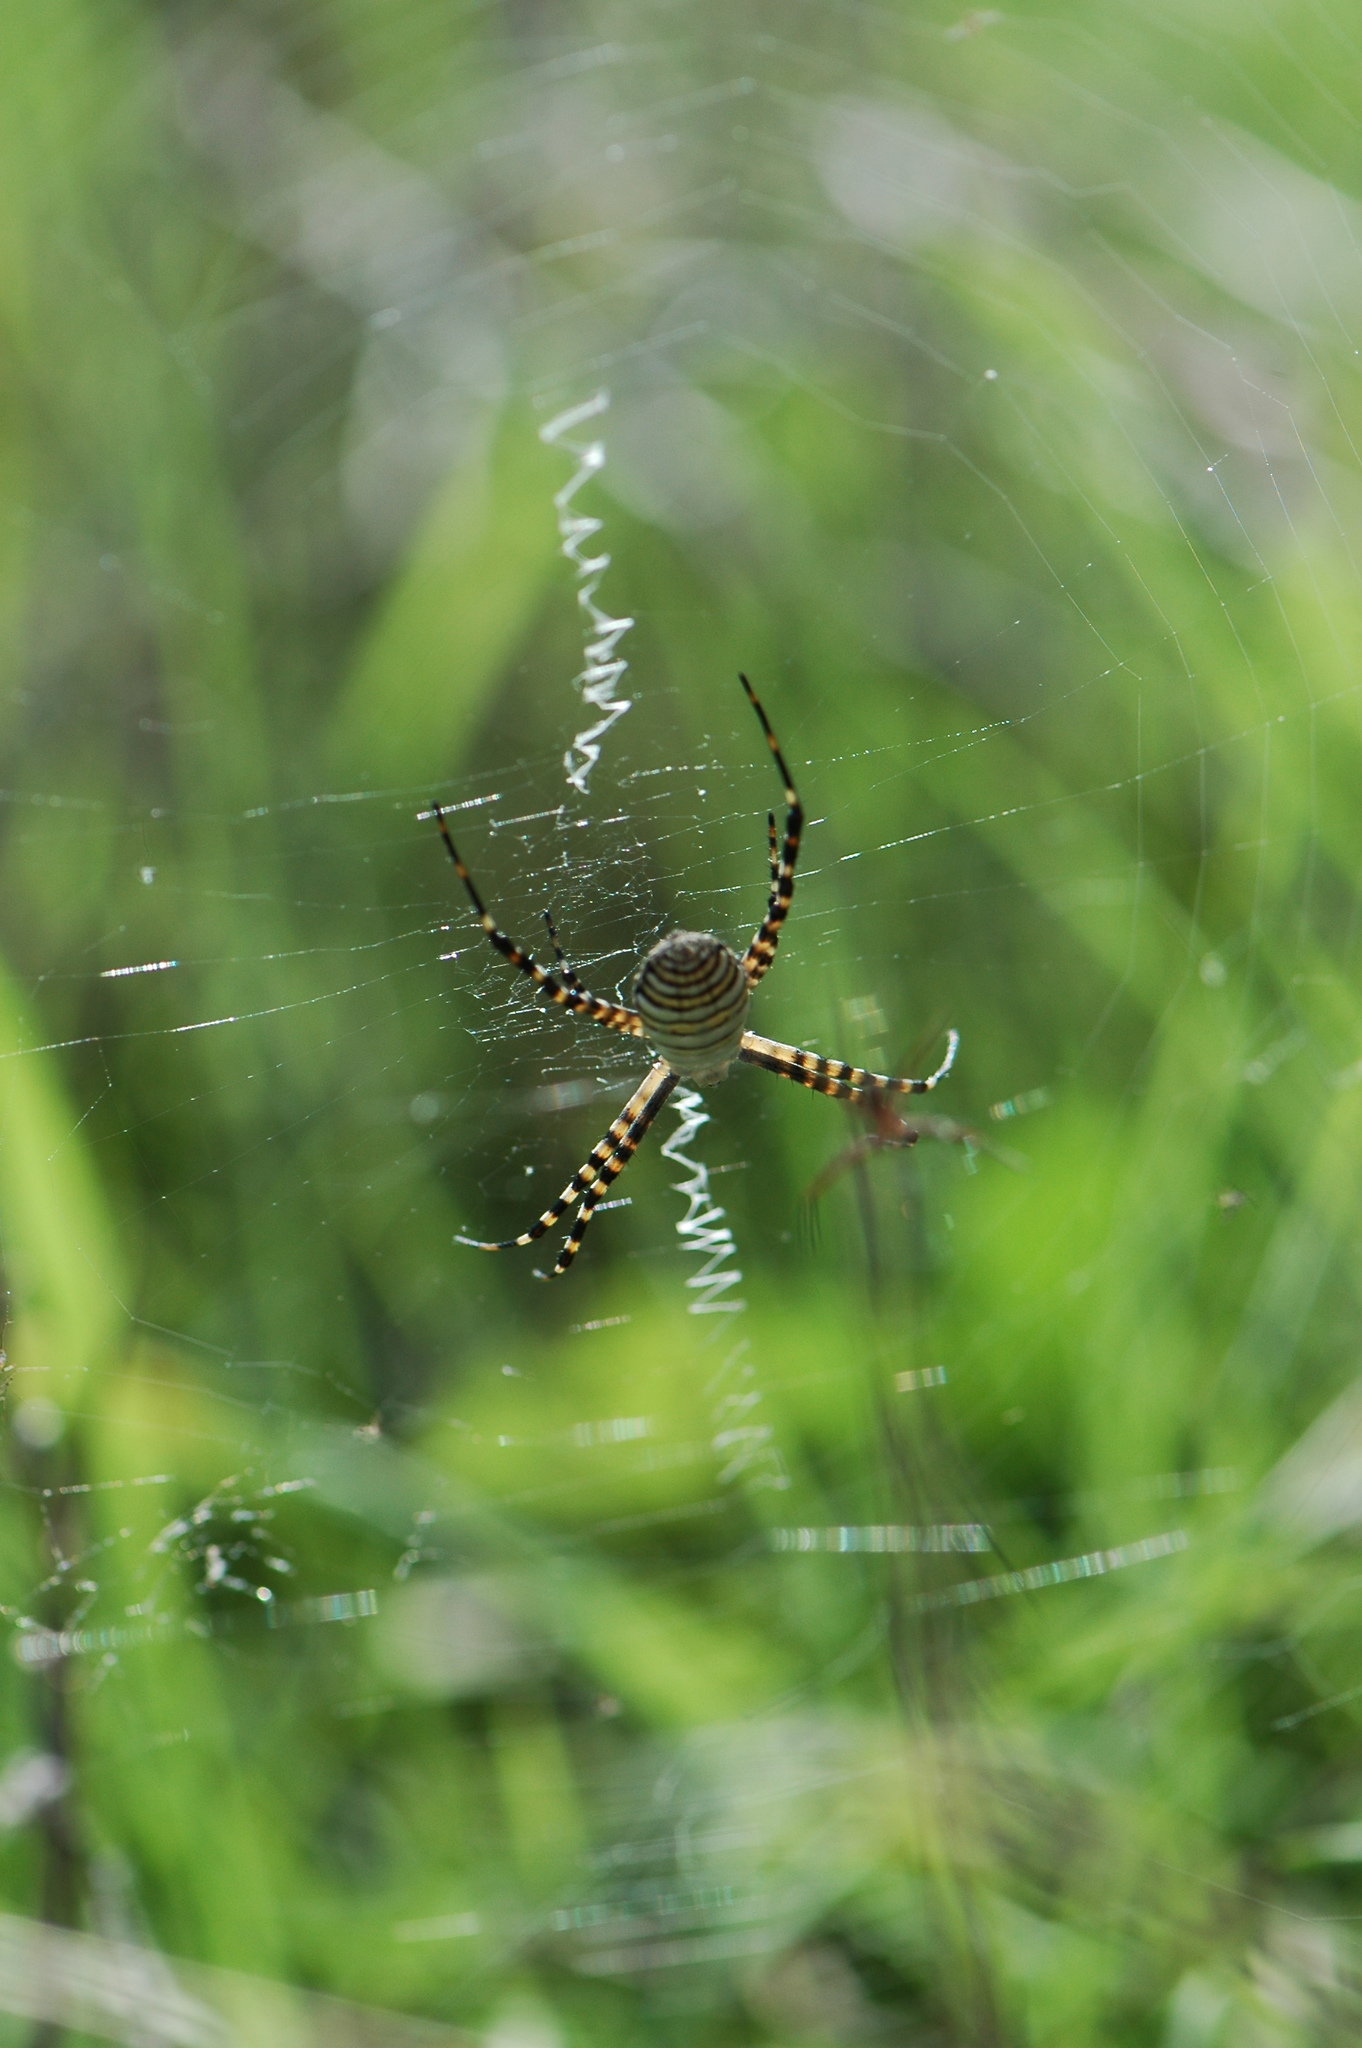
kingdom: Animalia
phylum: Arthropoda
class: Arachnida
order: Araneae
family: Araneidae
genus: Argiope
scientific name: Argiope trifasciata
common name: Banded garden spider
